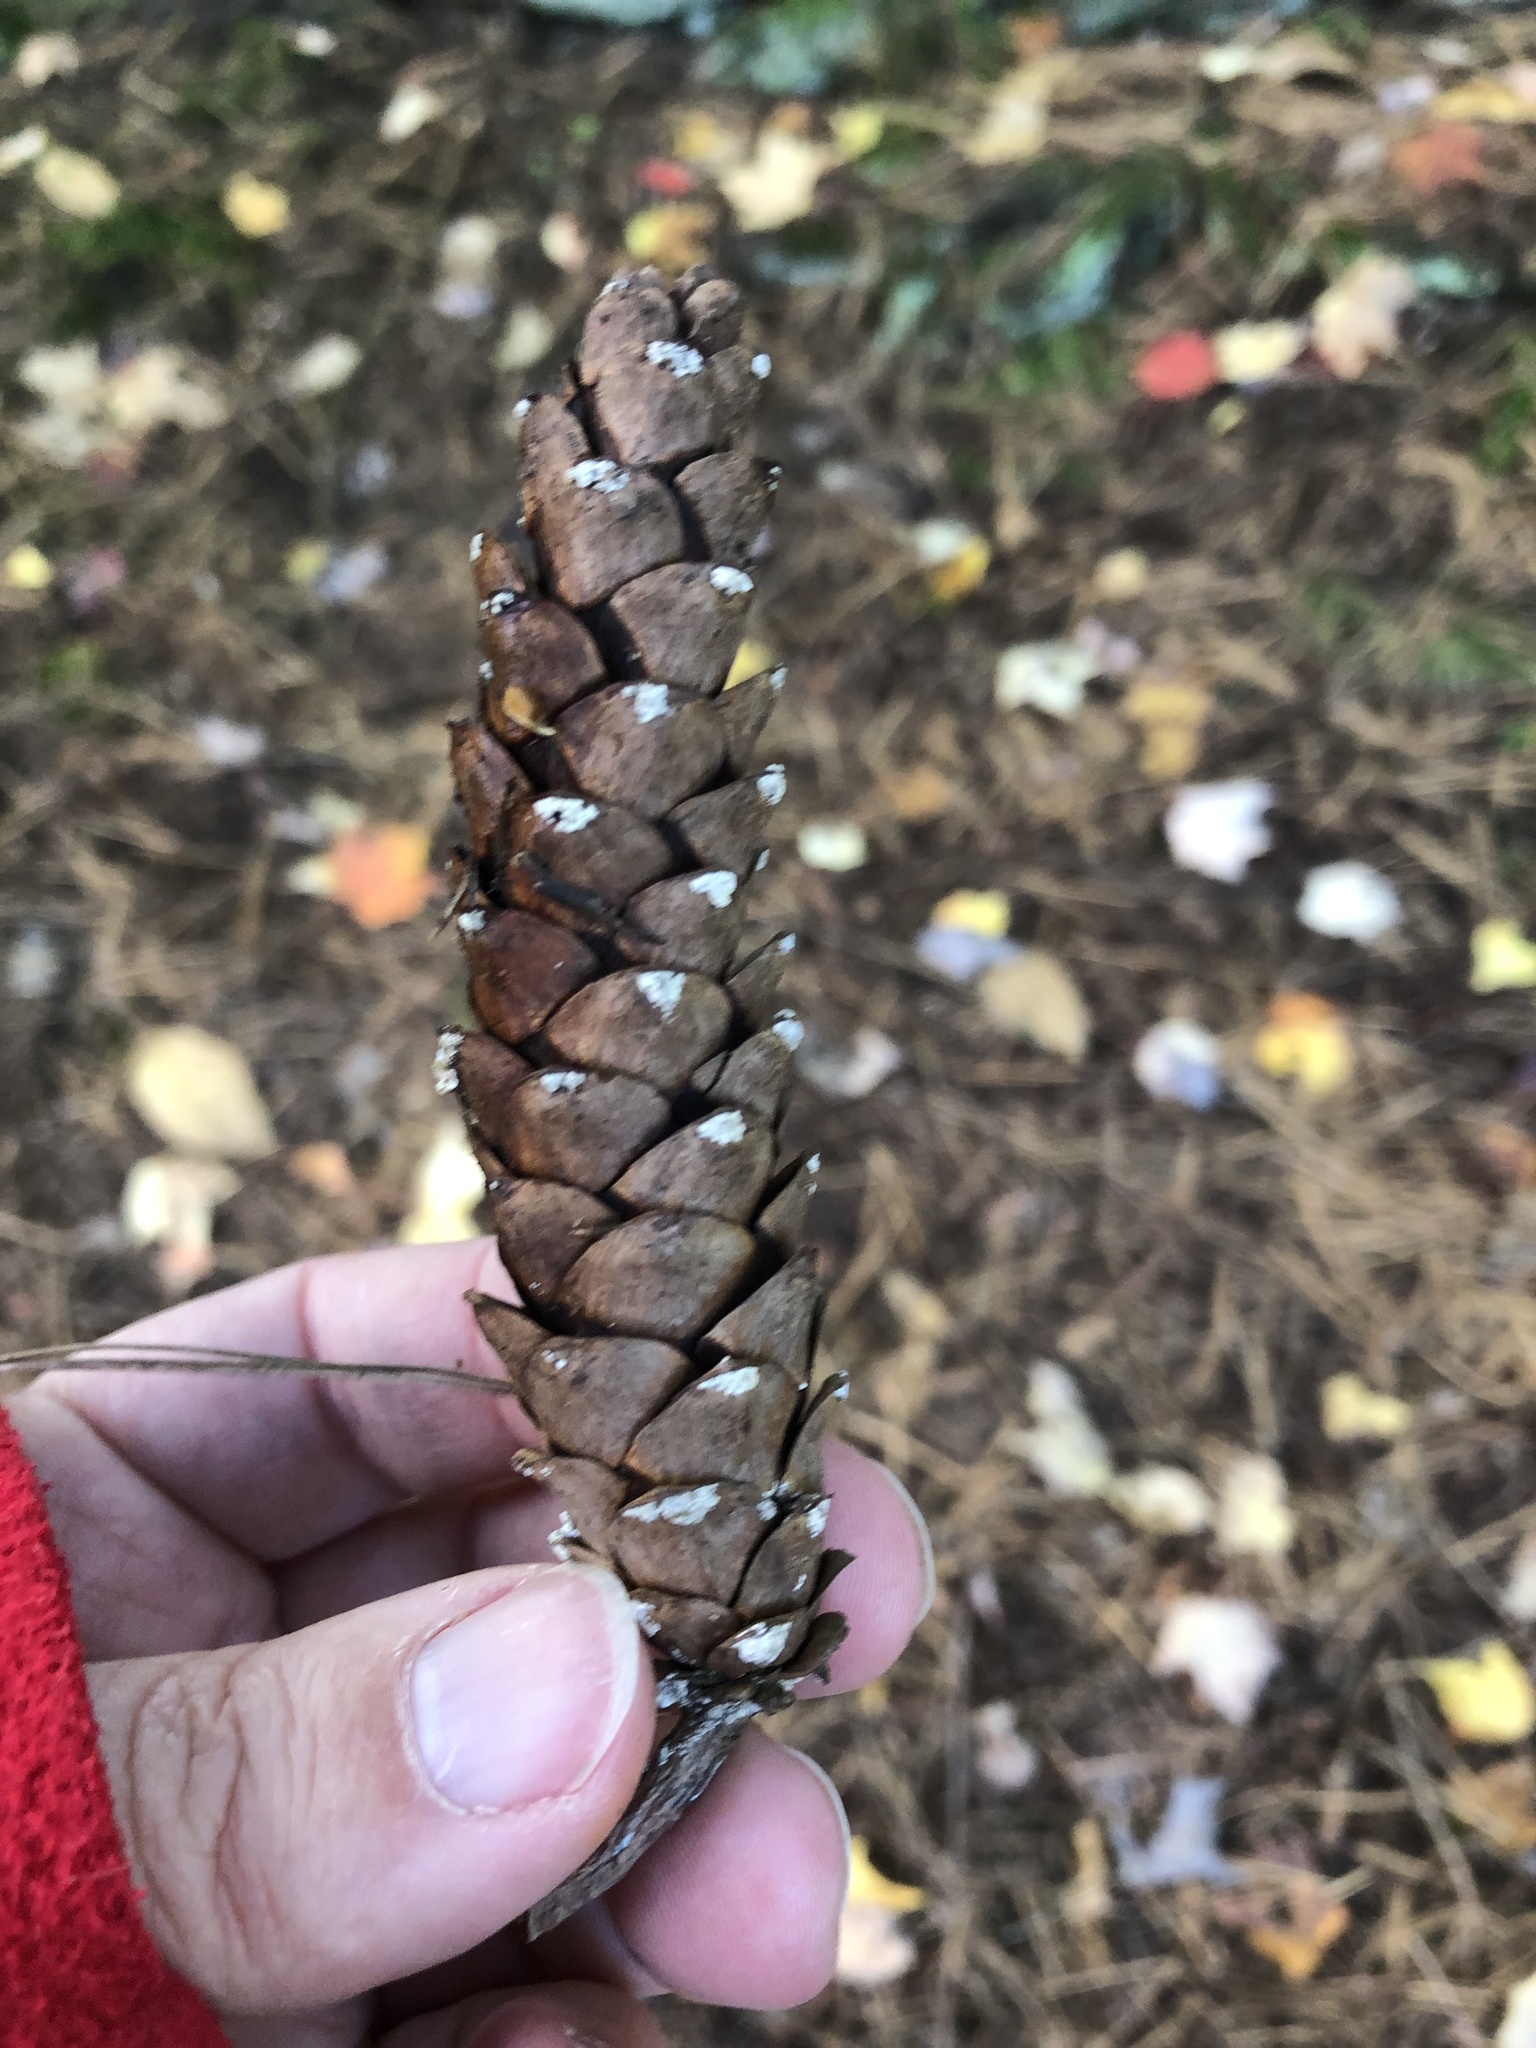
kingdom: Plantae
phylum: Tracheophyta
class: Pinopsida
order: Pinales
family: Pinaceae
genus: Pinus
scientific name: Pinus strobus
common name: Weymouth pine
